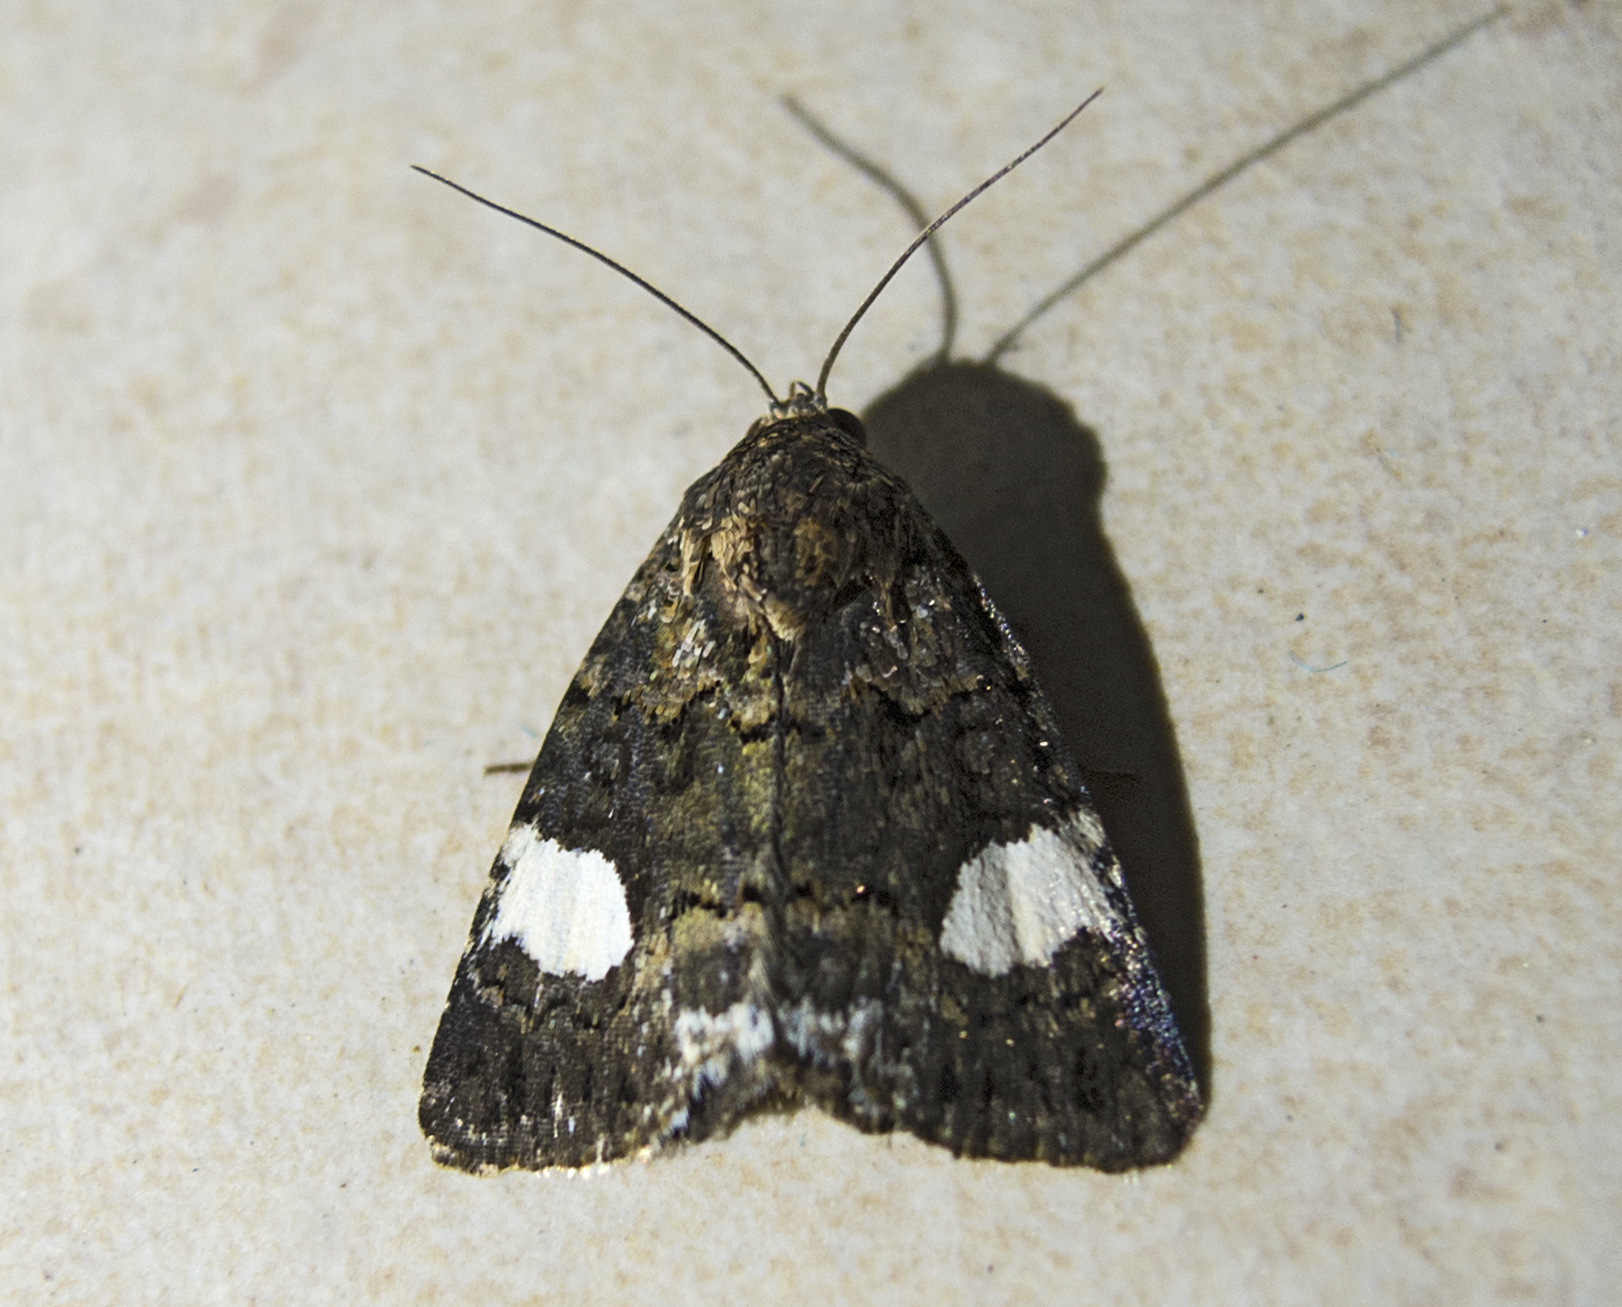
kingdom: Animalia
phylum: Arthropoda
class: Insecta
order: Lepidoptera
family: Erebidae
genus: Tyta
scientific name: Tyta luctuosa
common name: Four-spotted
